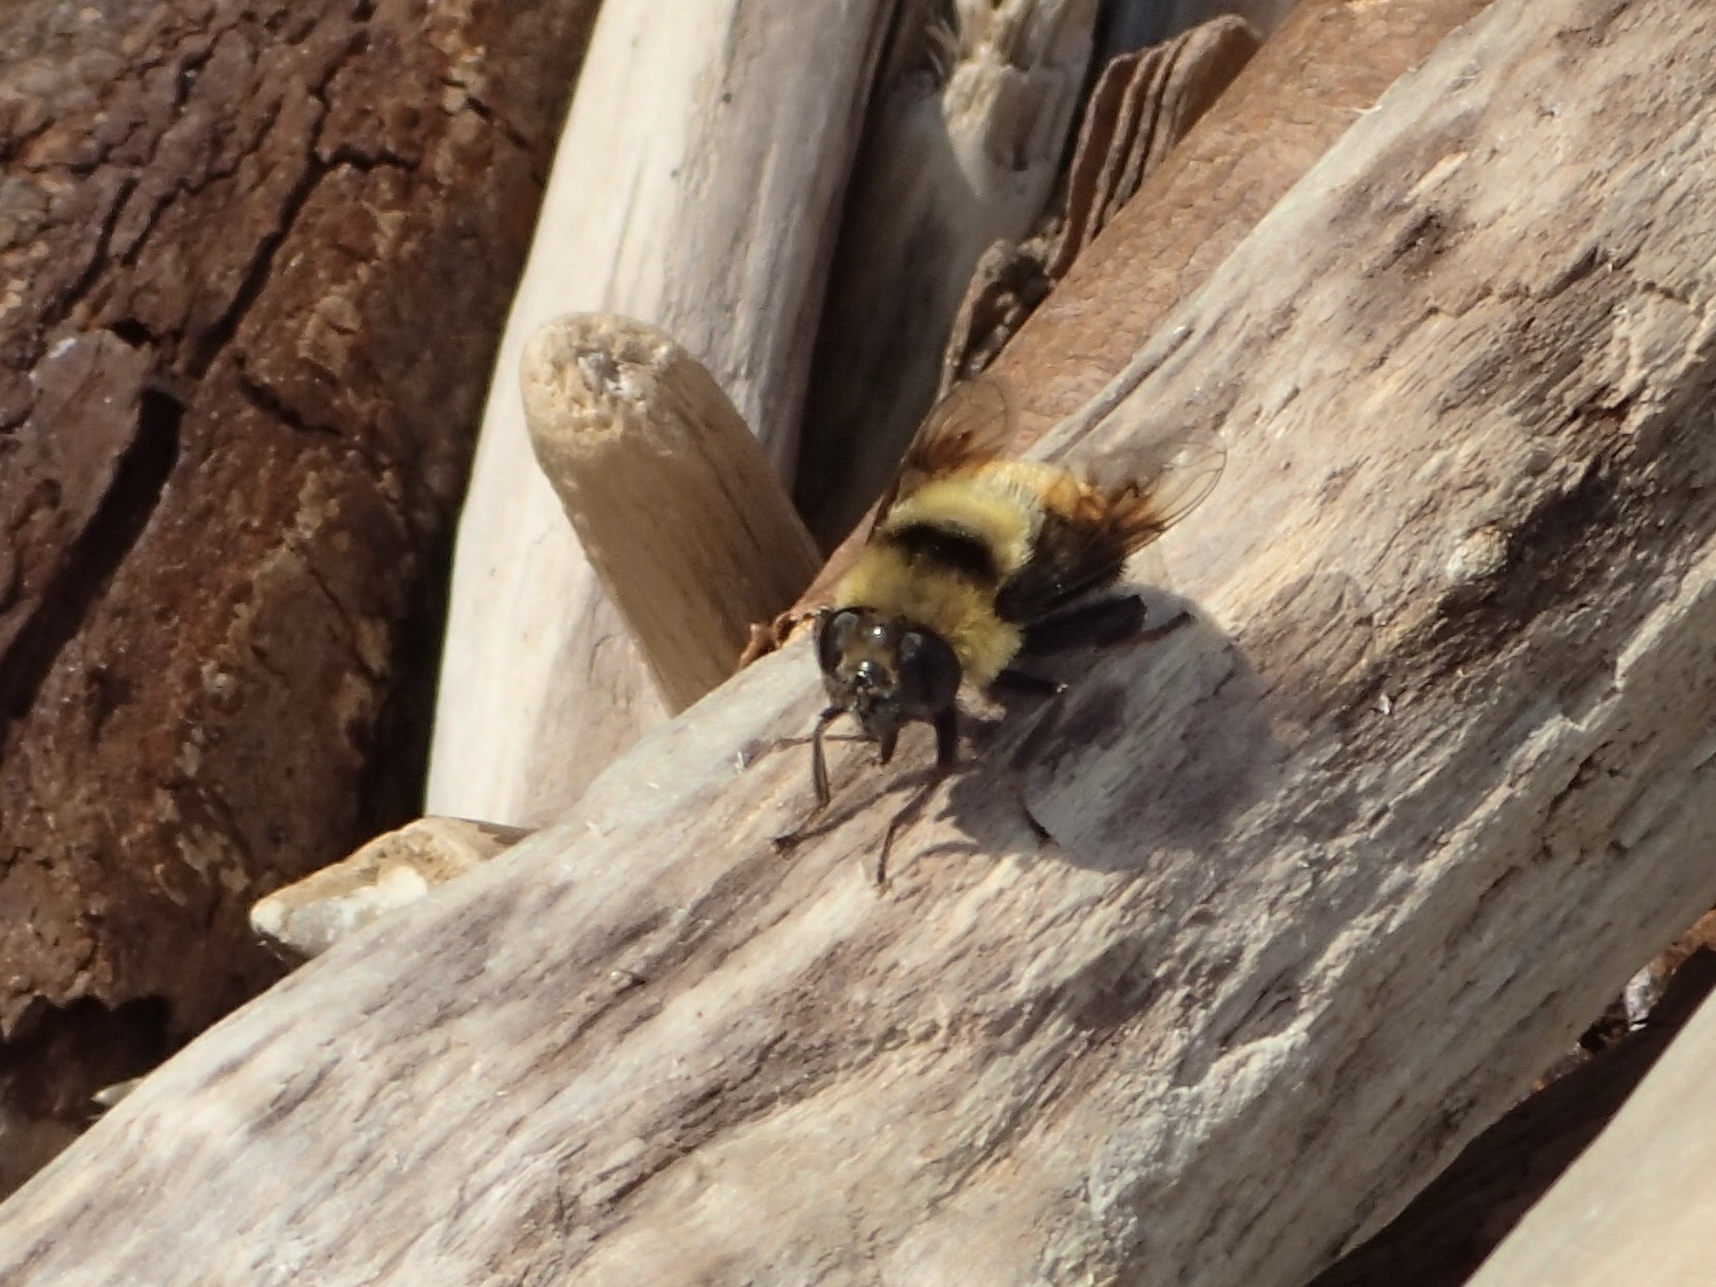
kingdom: Animalia
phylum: Arthropoda
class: Insecta
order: Diptera
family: Syrphidae
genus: Eristalis
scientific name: Eristalis flavipes
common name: Orange-legged drone fly
